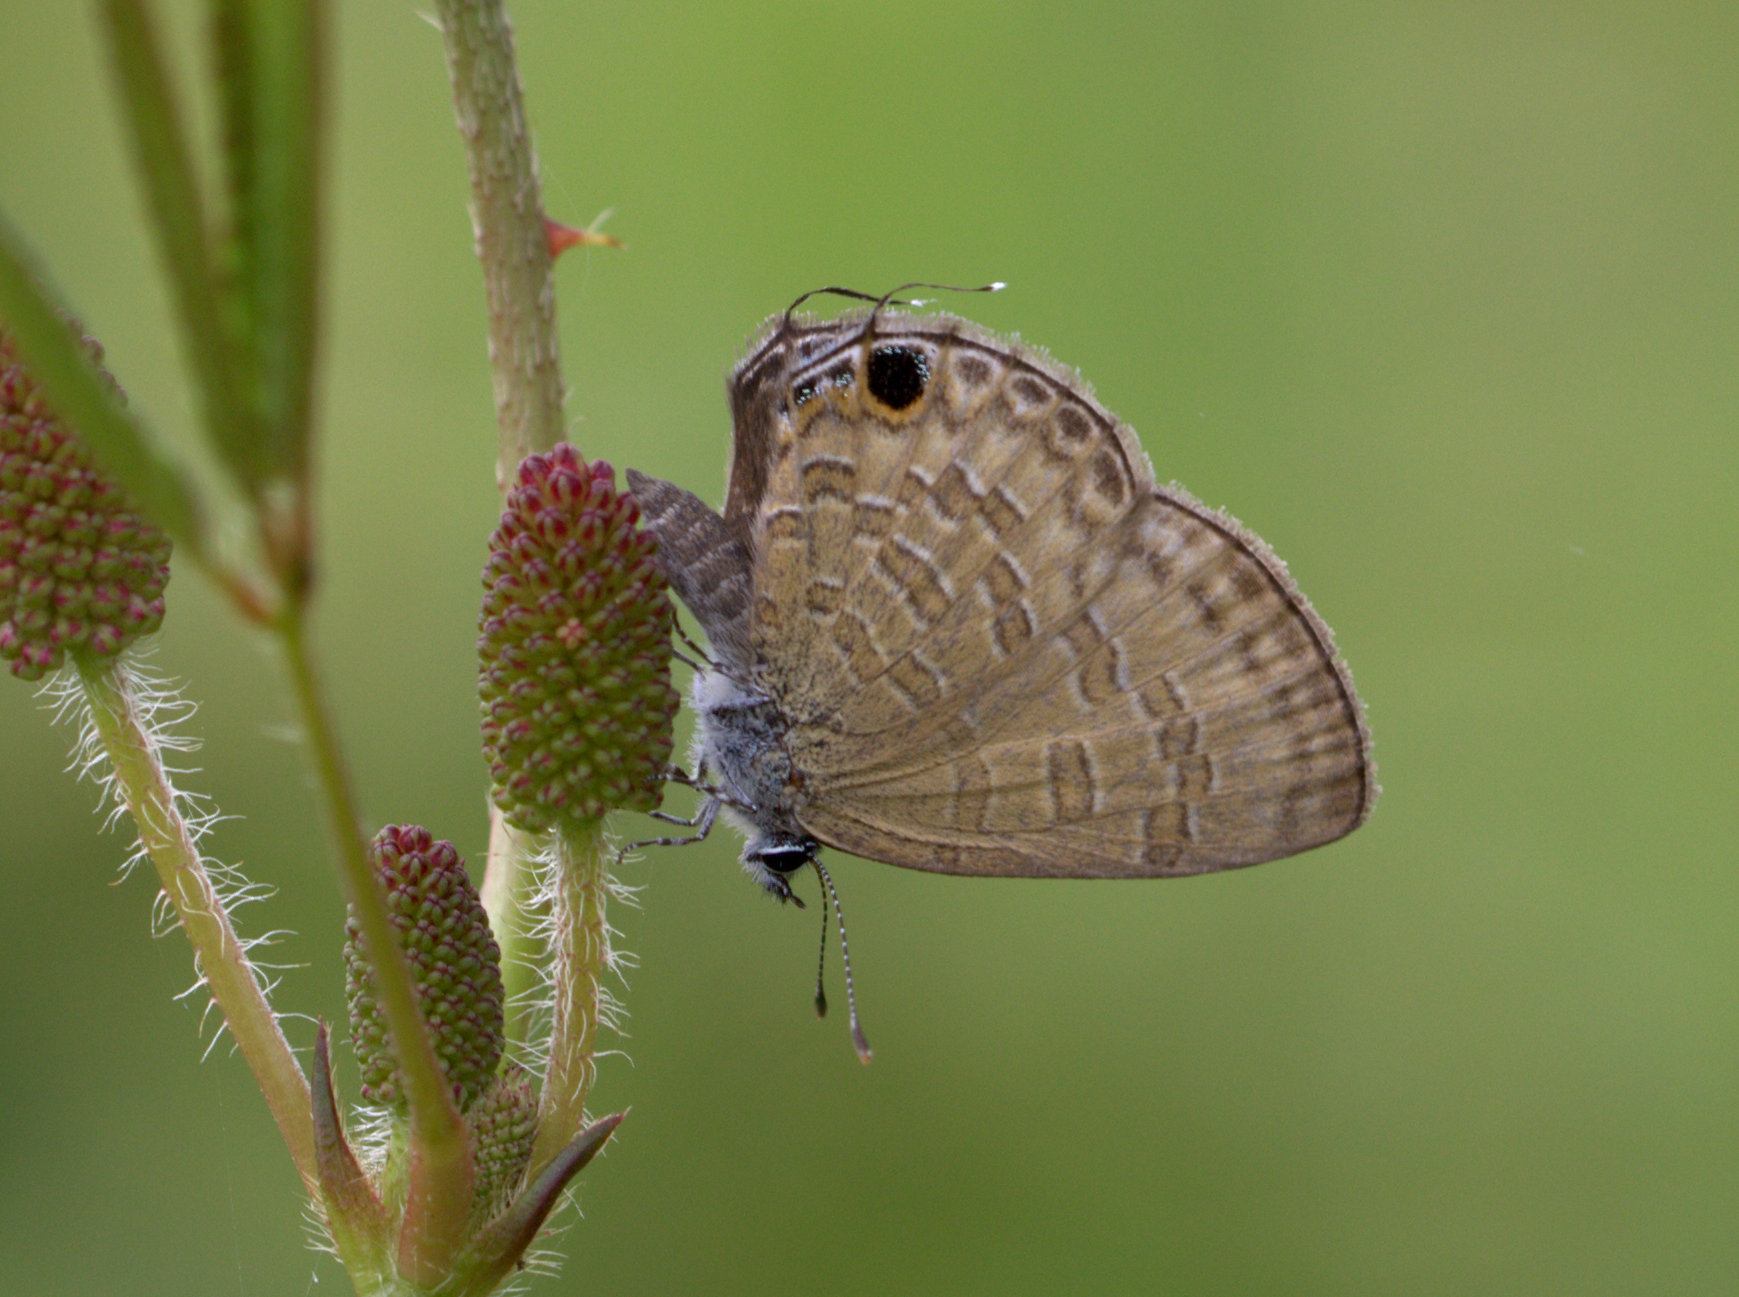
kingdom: Animalia
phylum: Arthropoda
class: Insecta
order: Lepidoptera
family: Lycaenidae
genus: Prosotas
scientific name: Prosotas nora
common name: Common line blue
